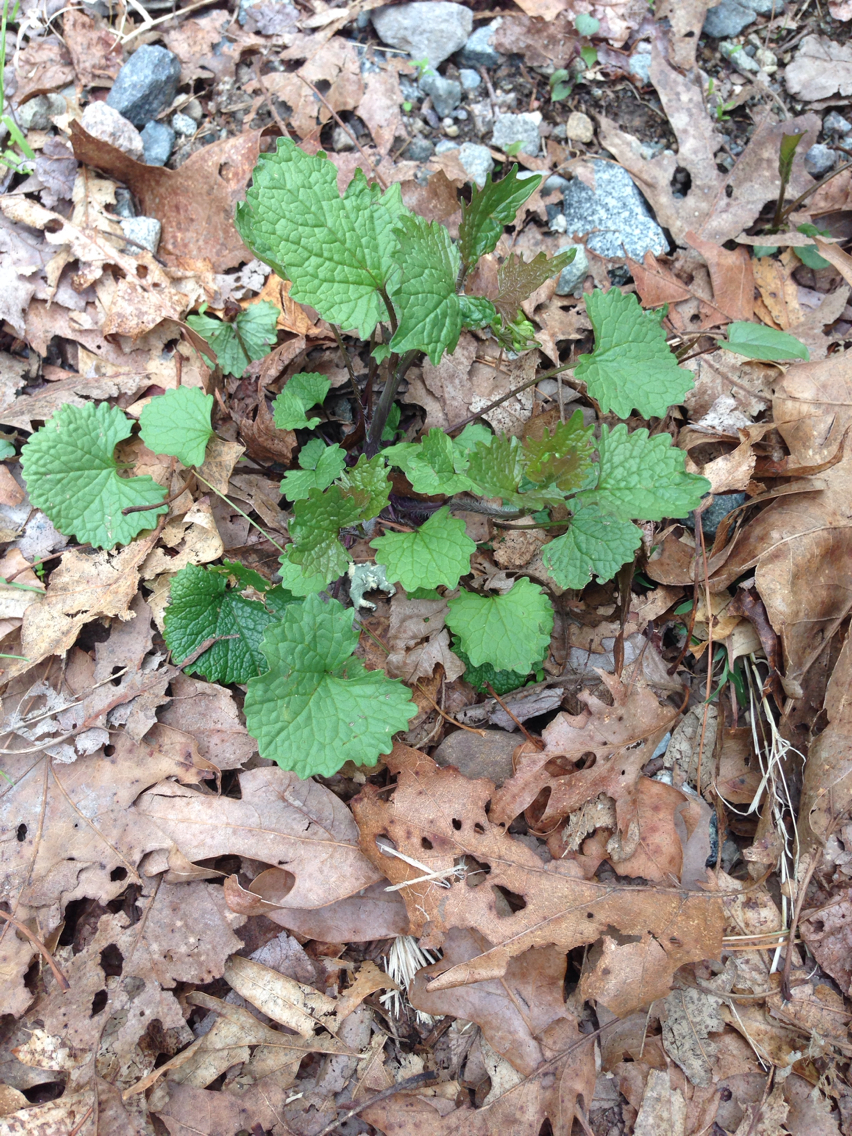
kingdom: Plantae
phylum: Tracheophyta
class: Magnoliopsida
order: Brassicales
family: Brassicaceae
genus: Alliaria
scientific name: Alliaria petiolata
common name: Garlic mustard
